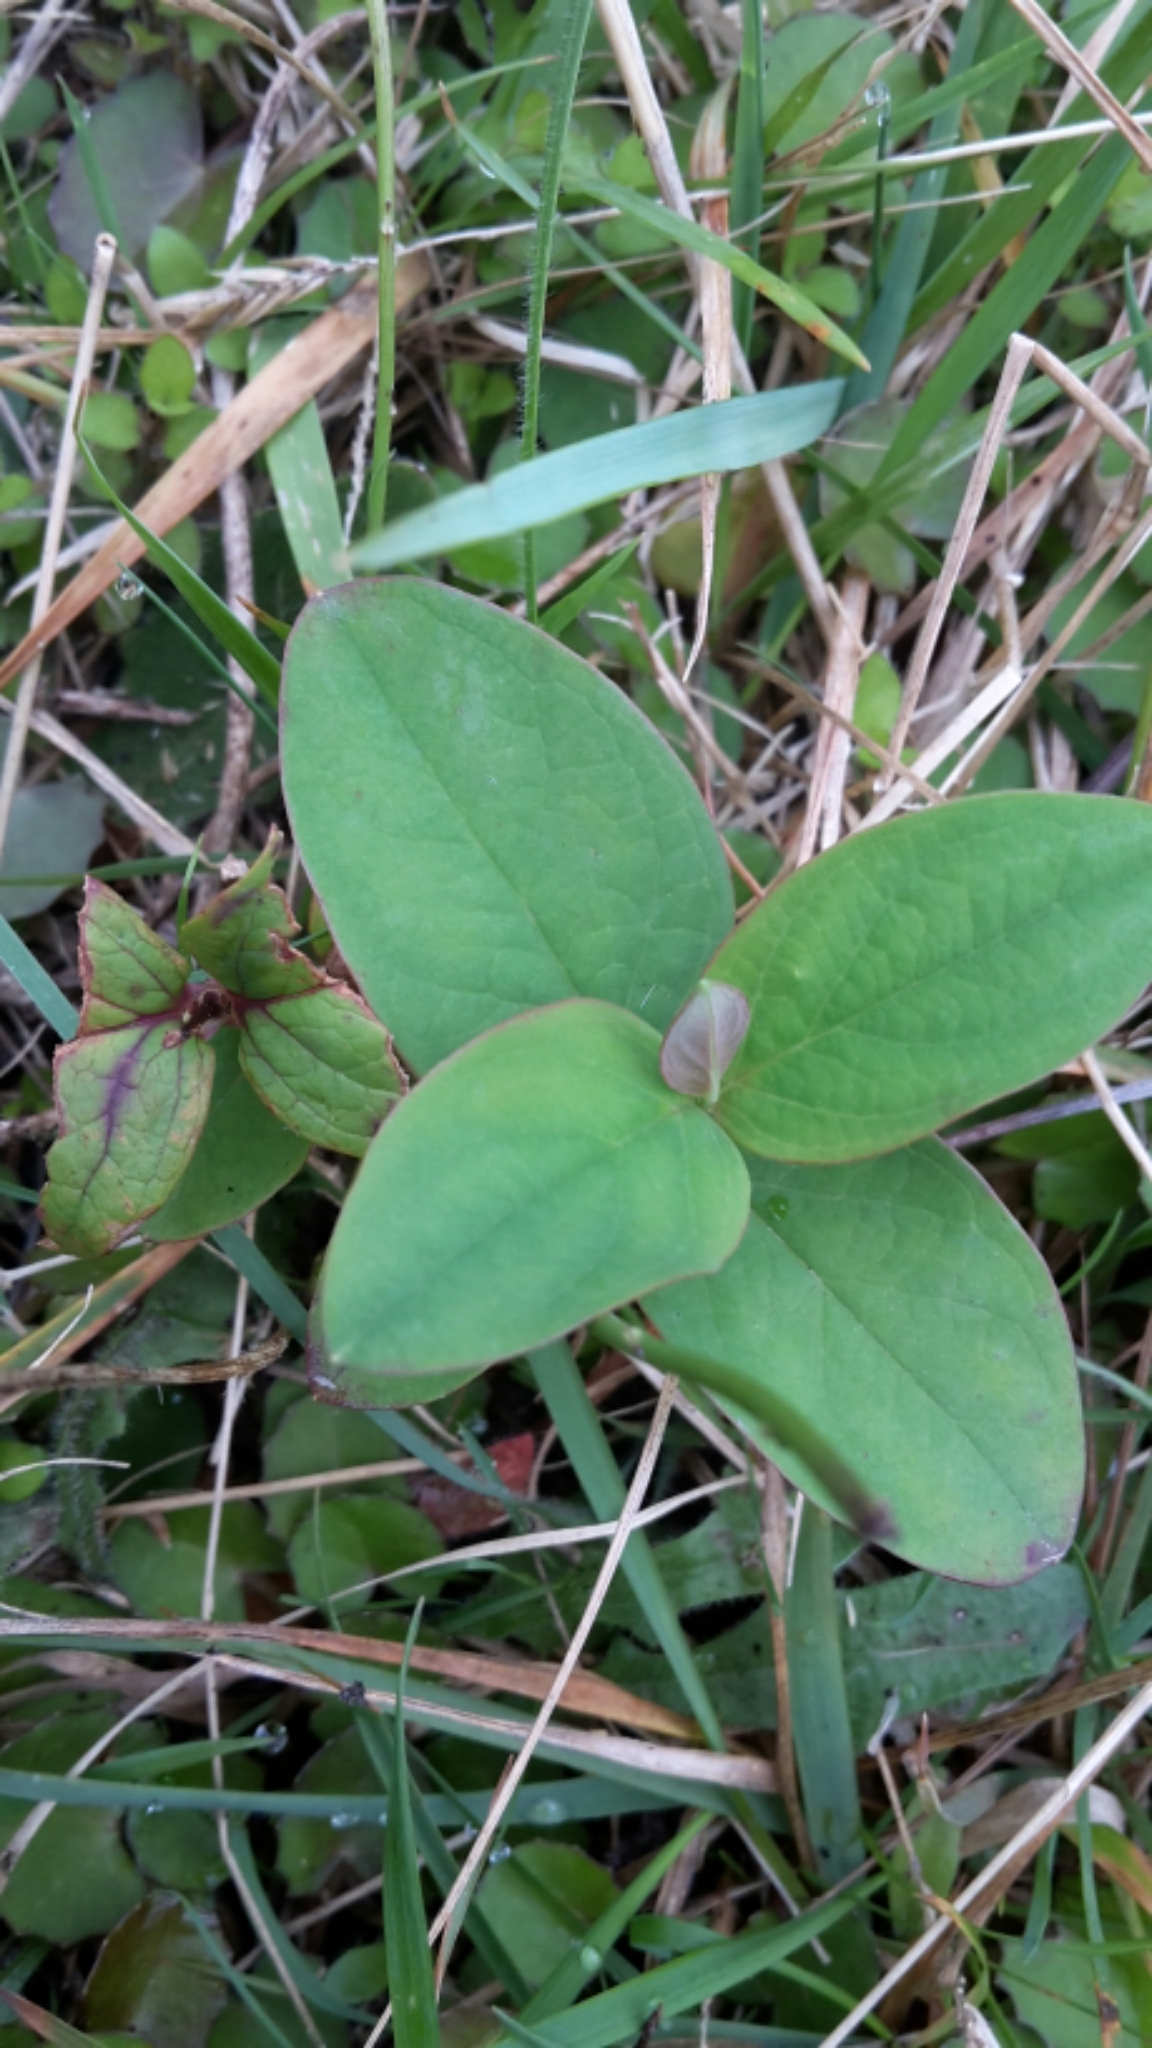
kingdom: Plantae
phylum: Tracheophyta
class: Magnoliopsida
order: Malpighiales
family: Hypericaceae
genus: Hypericum
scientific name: Hypericum perforatum
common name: Common st. johnswort
